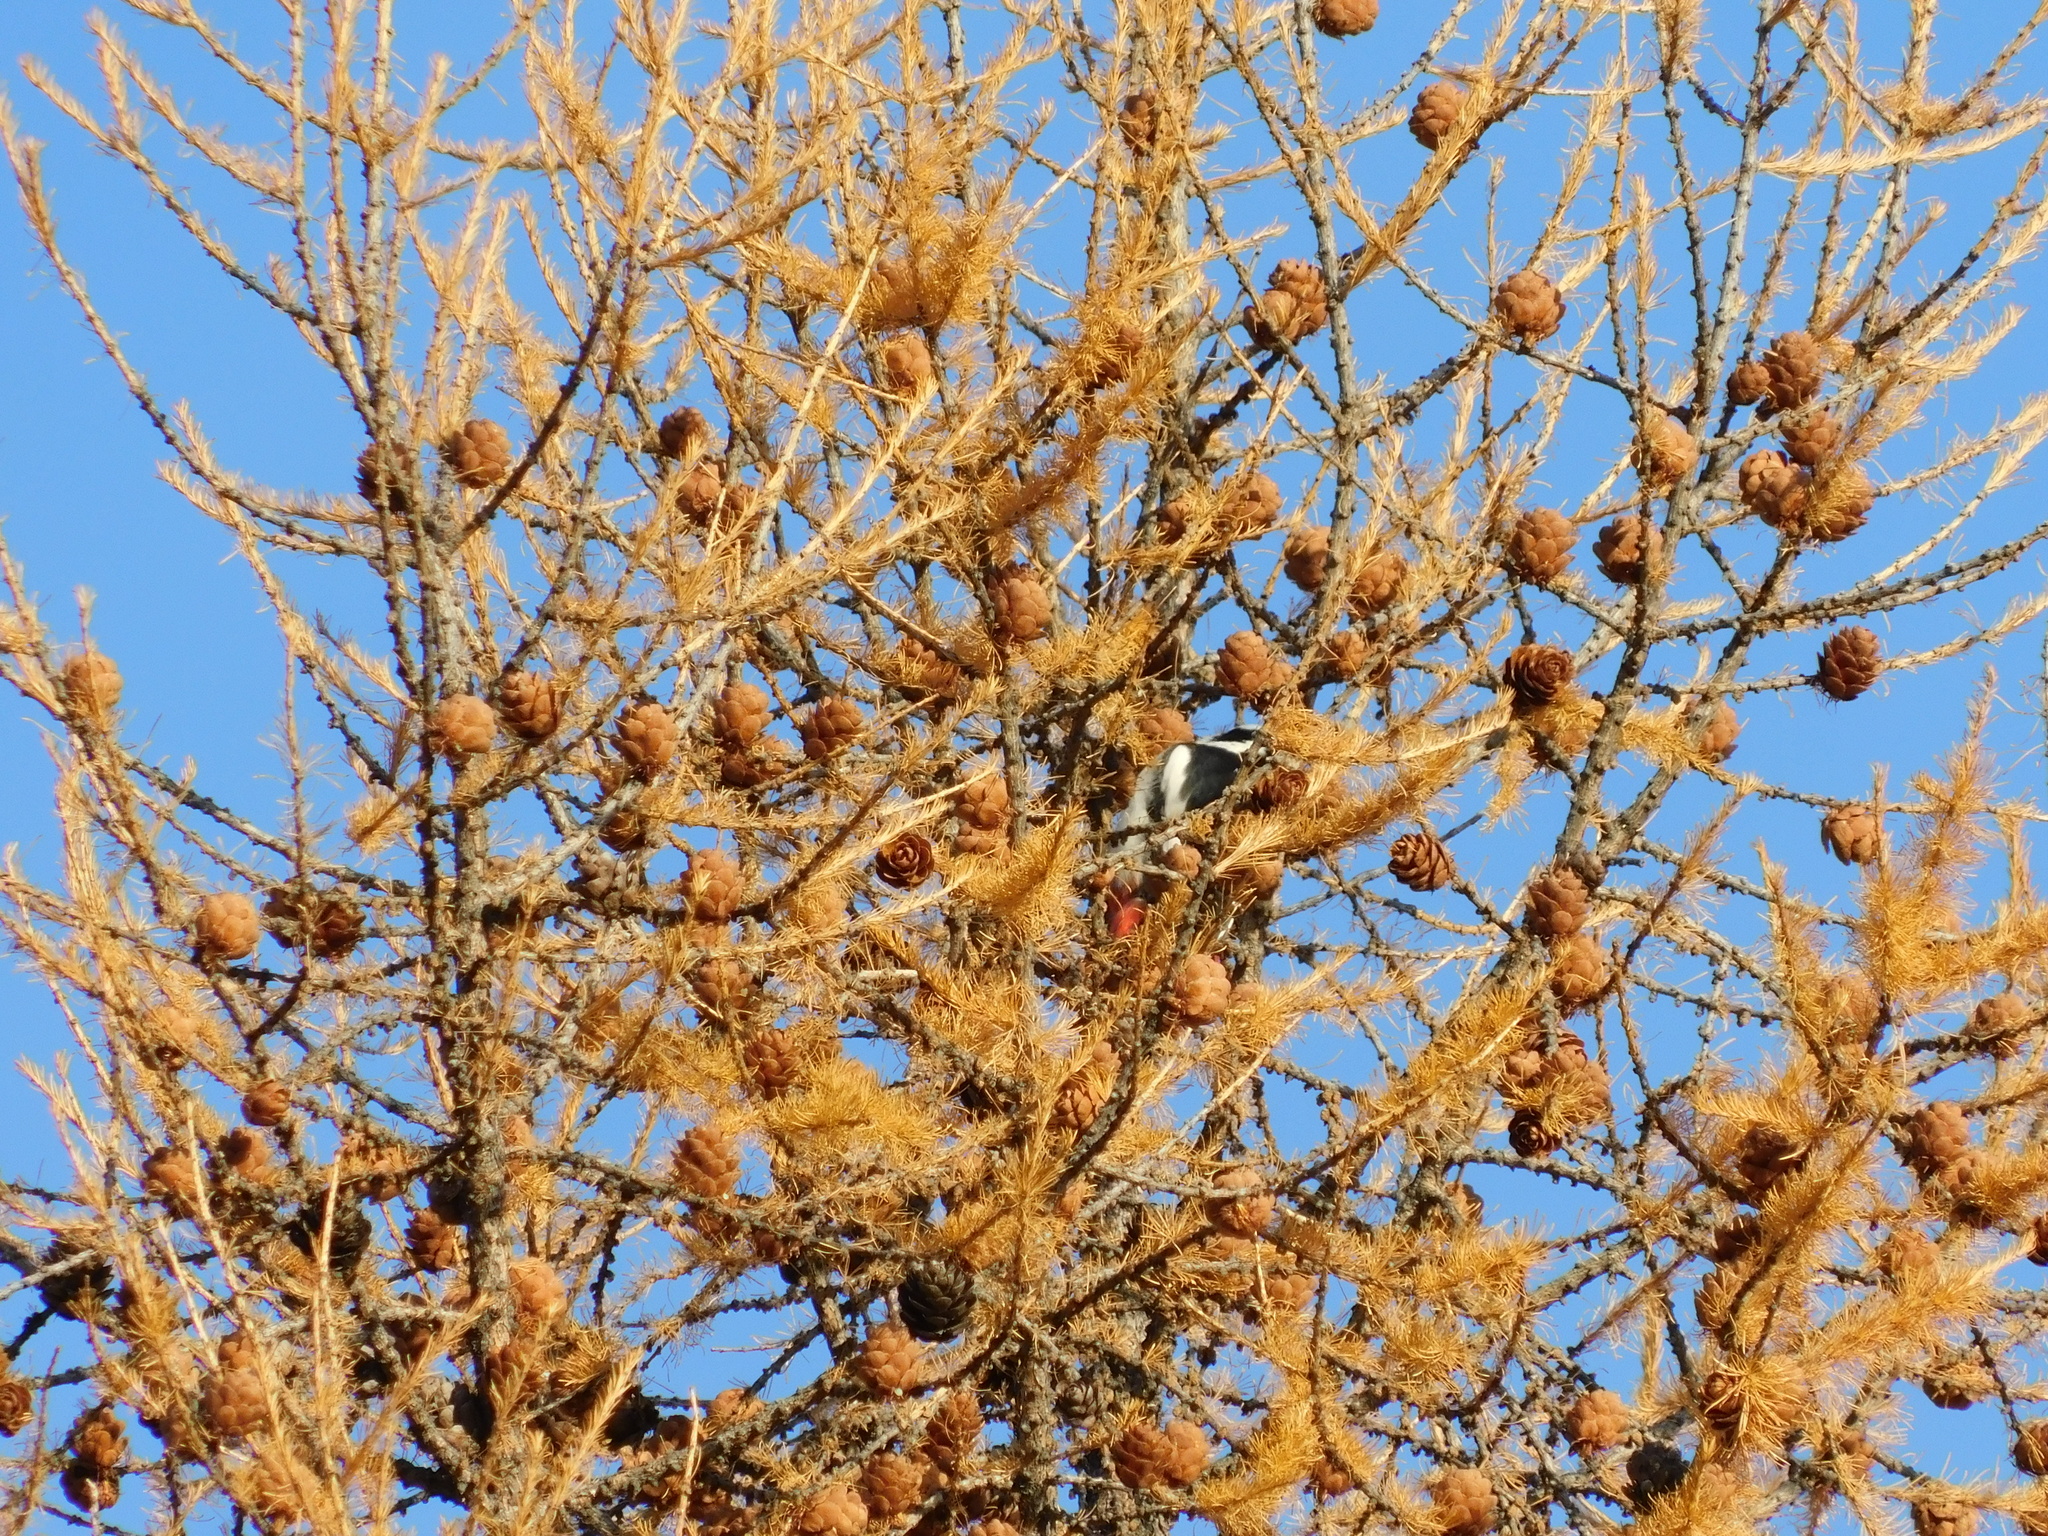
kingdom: Animalia
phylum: Chordata
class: Aves
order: Piciformes
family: Picidae
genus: Dendrocopos
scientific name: Dendrocopos major
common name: Great spotted woodpecker
